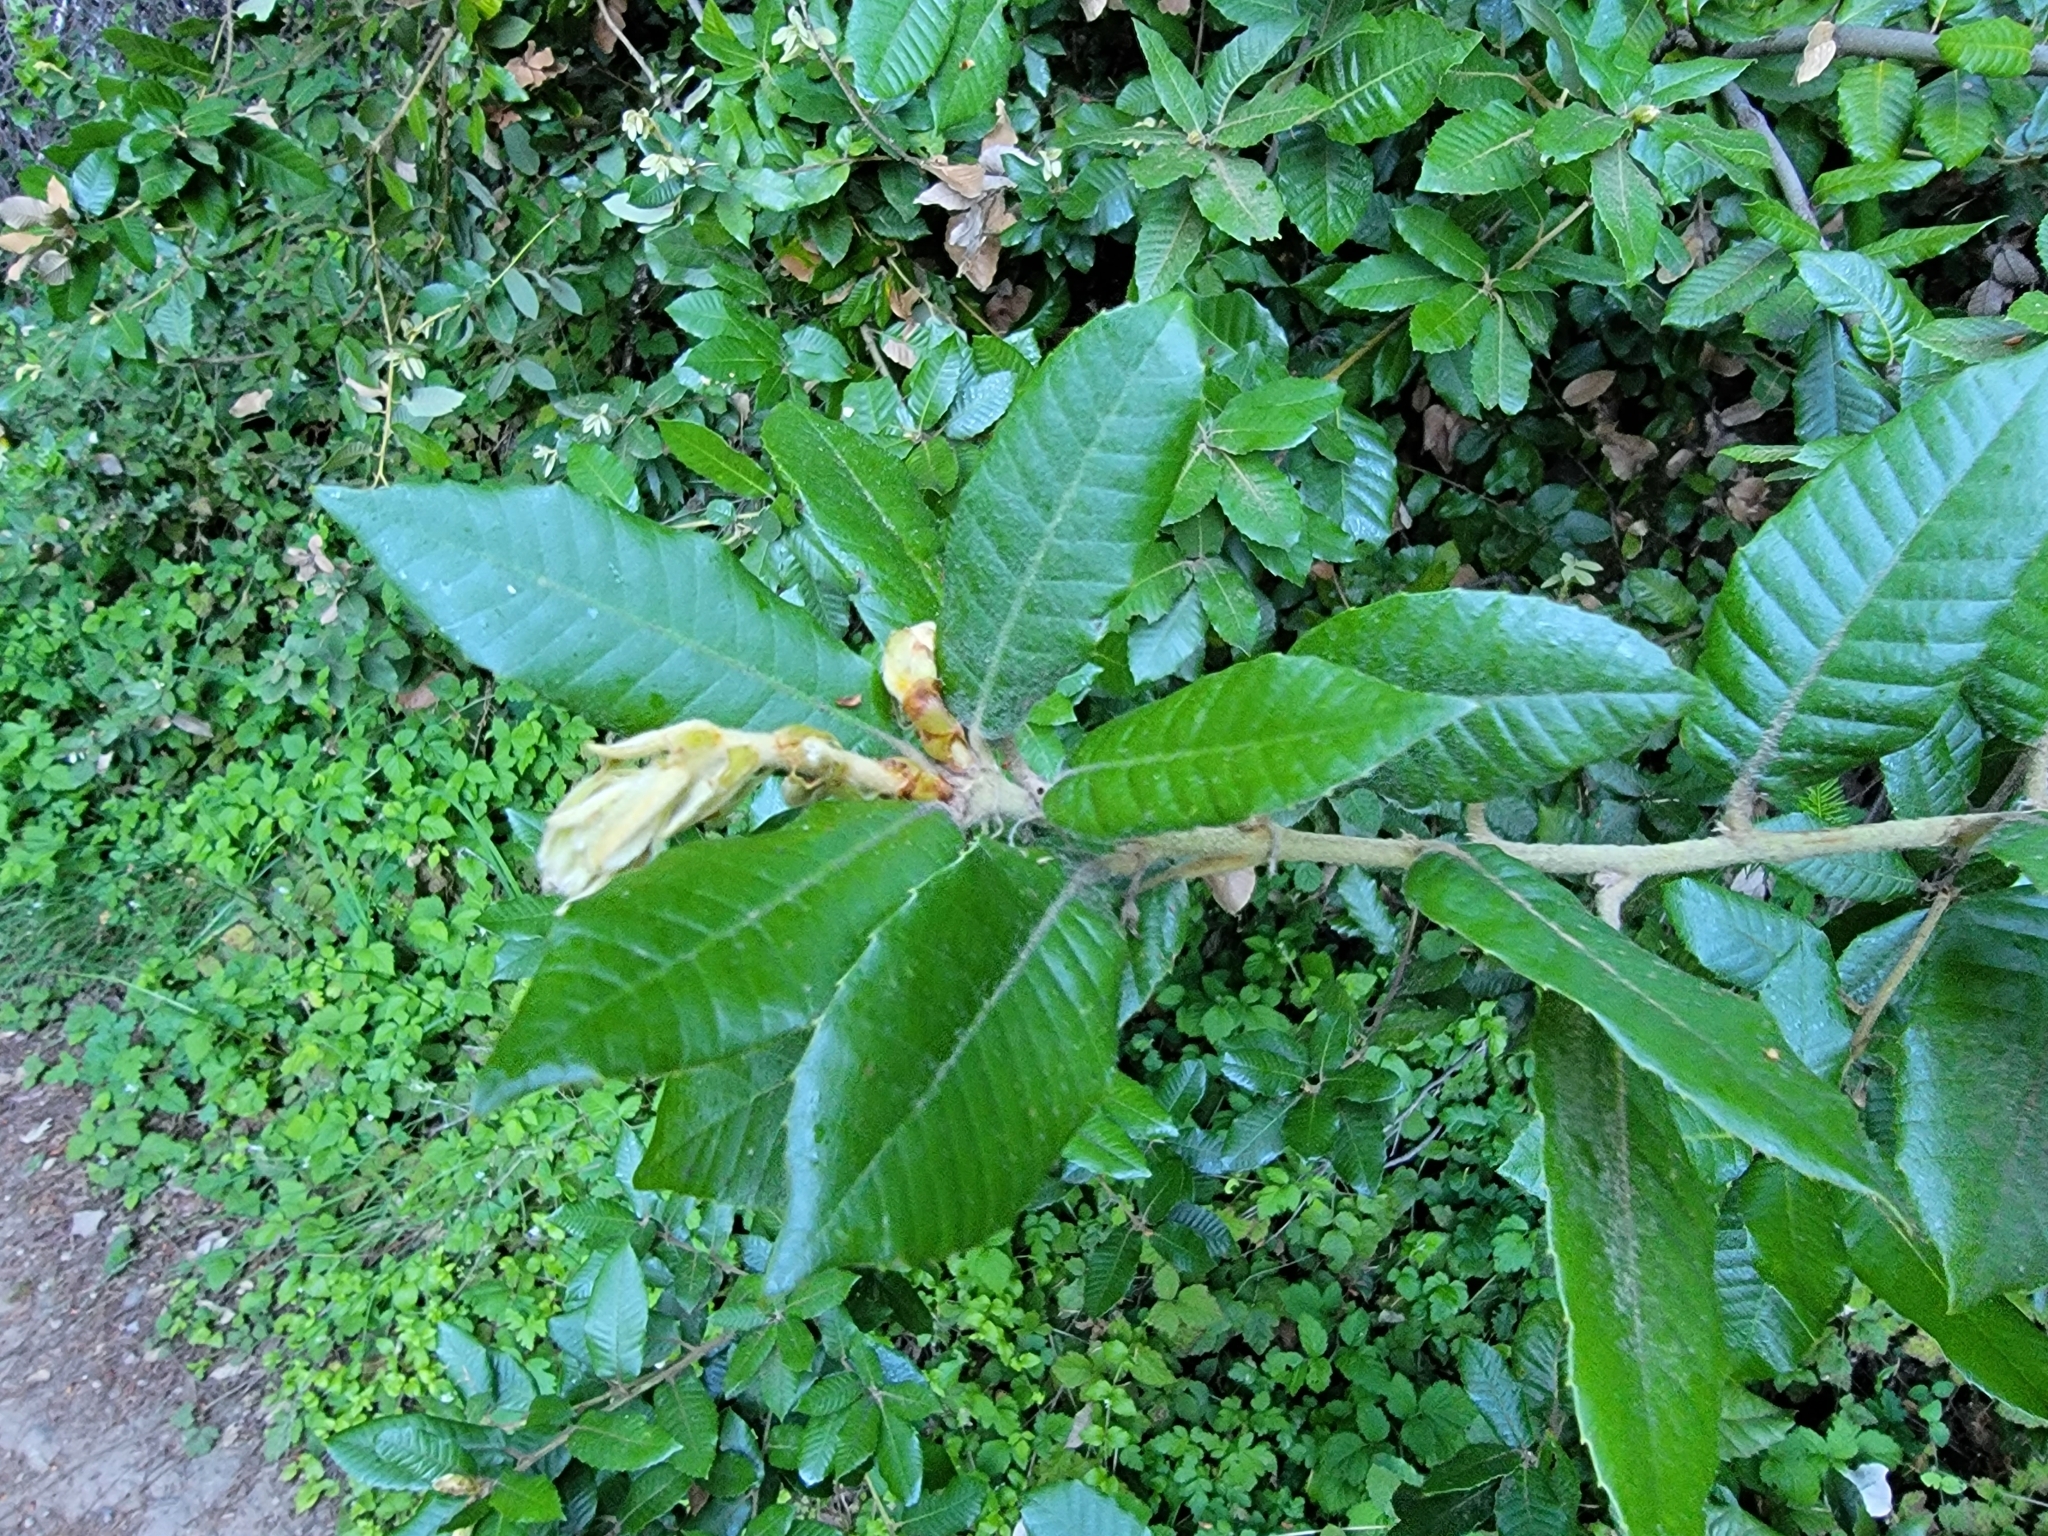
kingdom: Plantae
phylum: Tracheophyta
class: Magnoliopsida
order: Fagales
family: Fagaceae
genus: Notholithocarpus
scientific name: Notholithocarpus densiflorus
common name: Tan bark oak
